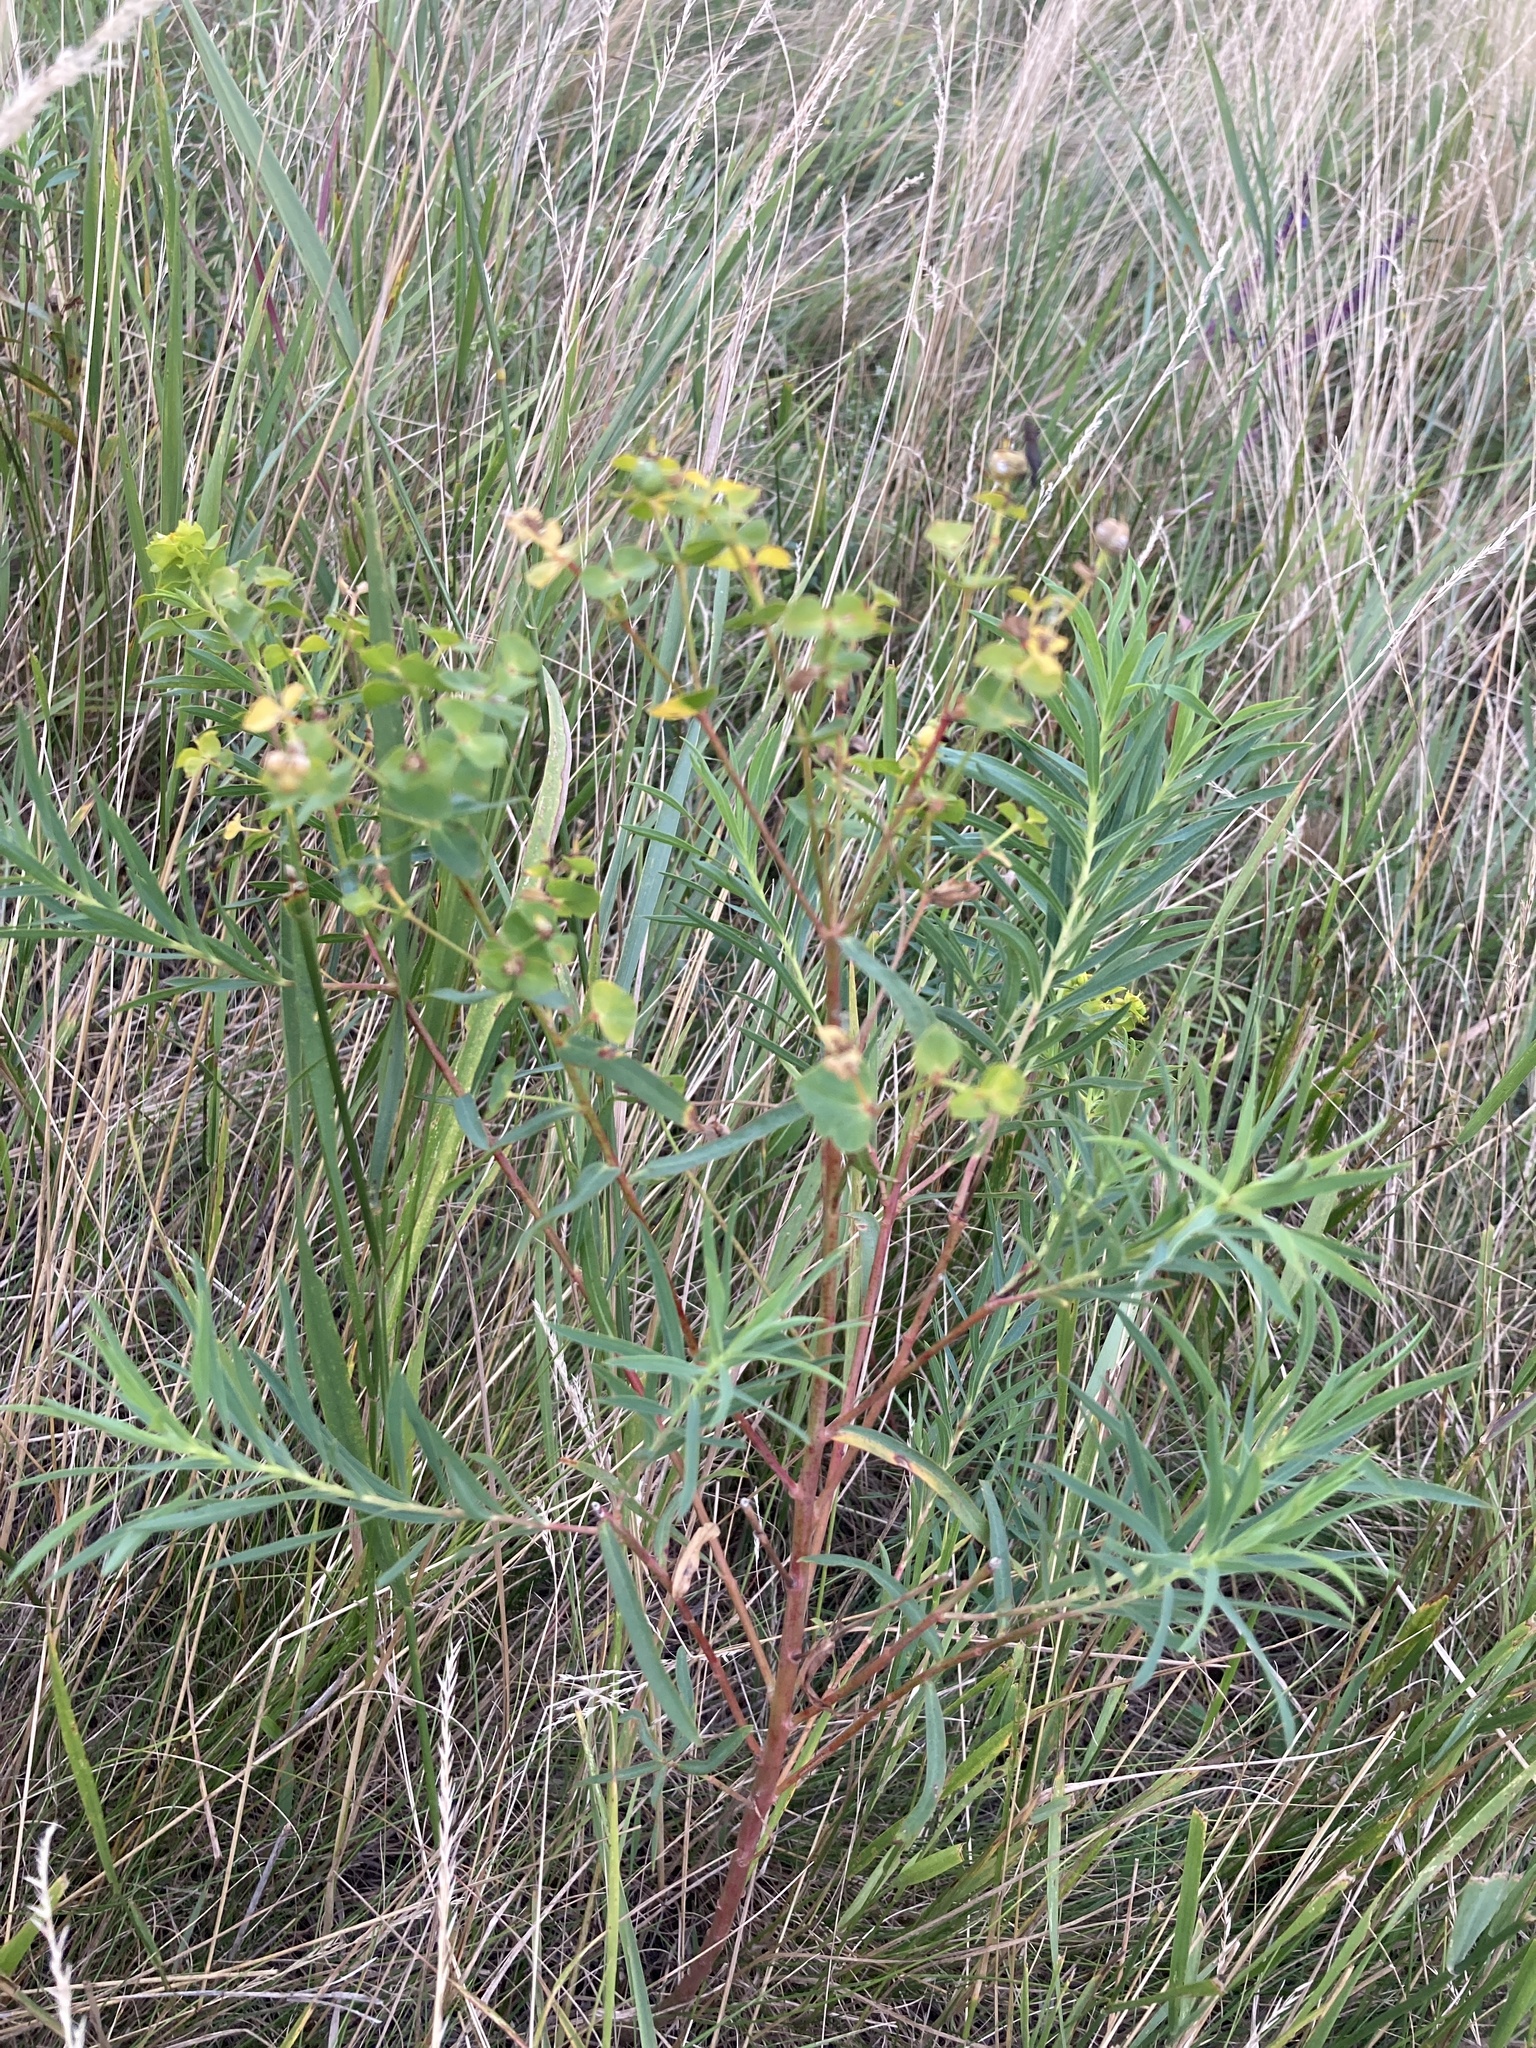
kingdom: Plantae
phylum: Tracheophyta
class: Magnoliopsida
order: Malpighiales
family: Euphorbiaceae
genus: Euphorbia
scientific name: Euphorbia virgata
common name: Leafy spurge
